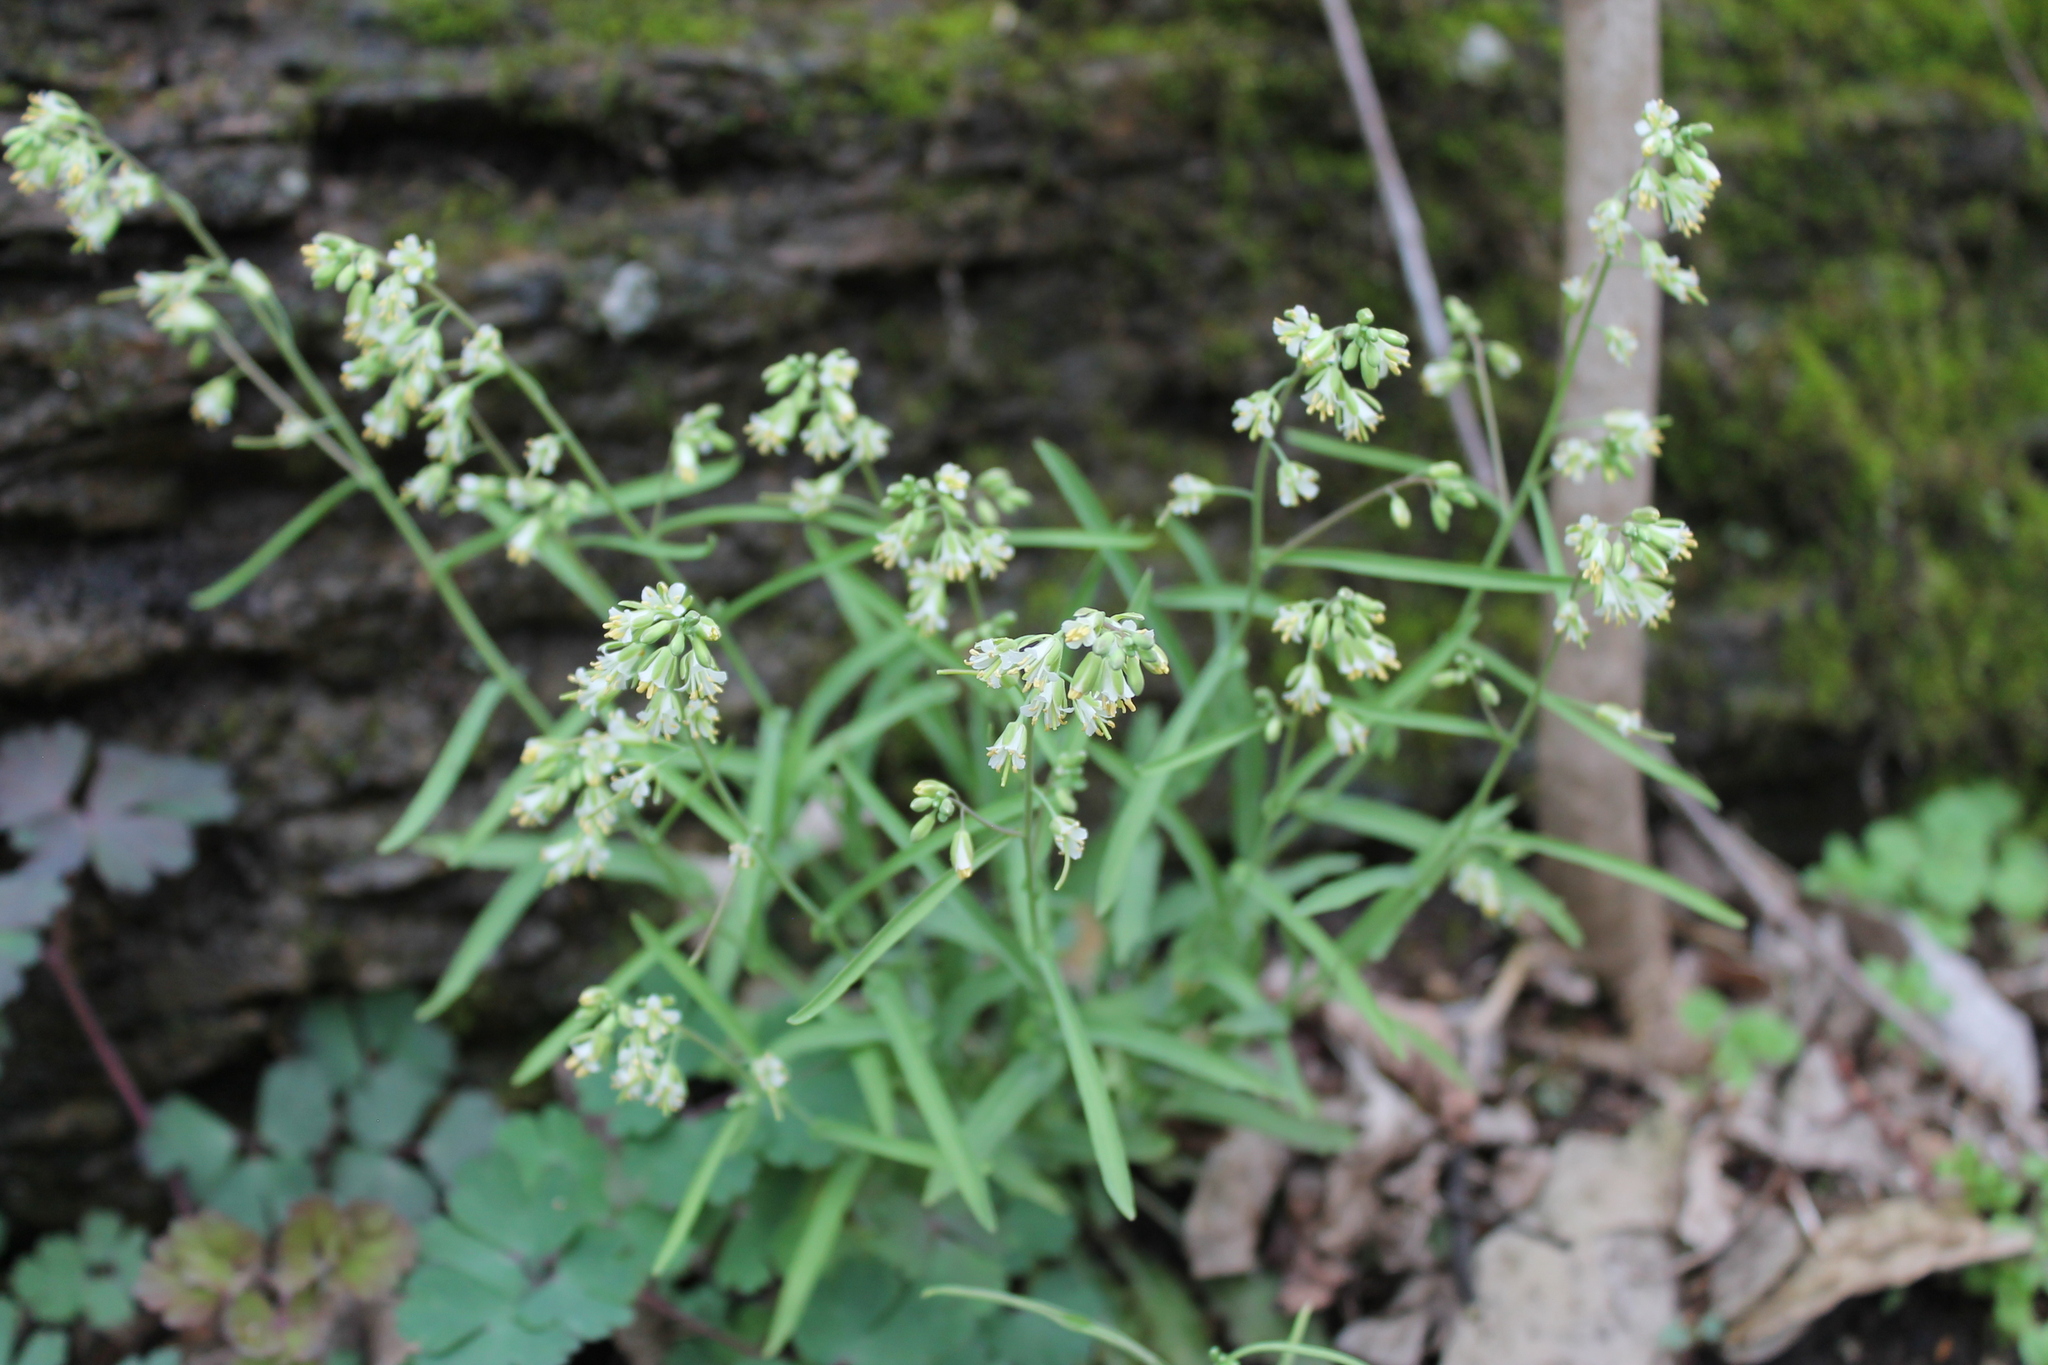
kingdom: Plantae
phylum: Tracheophyta
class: Magnoliopsida
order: Brassicales
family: Brassicaceae
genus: Borodinia
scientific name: Borodinia laevigata
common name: Smooth rockcress
